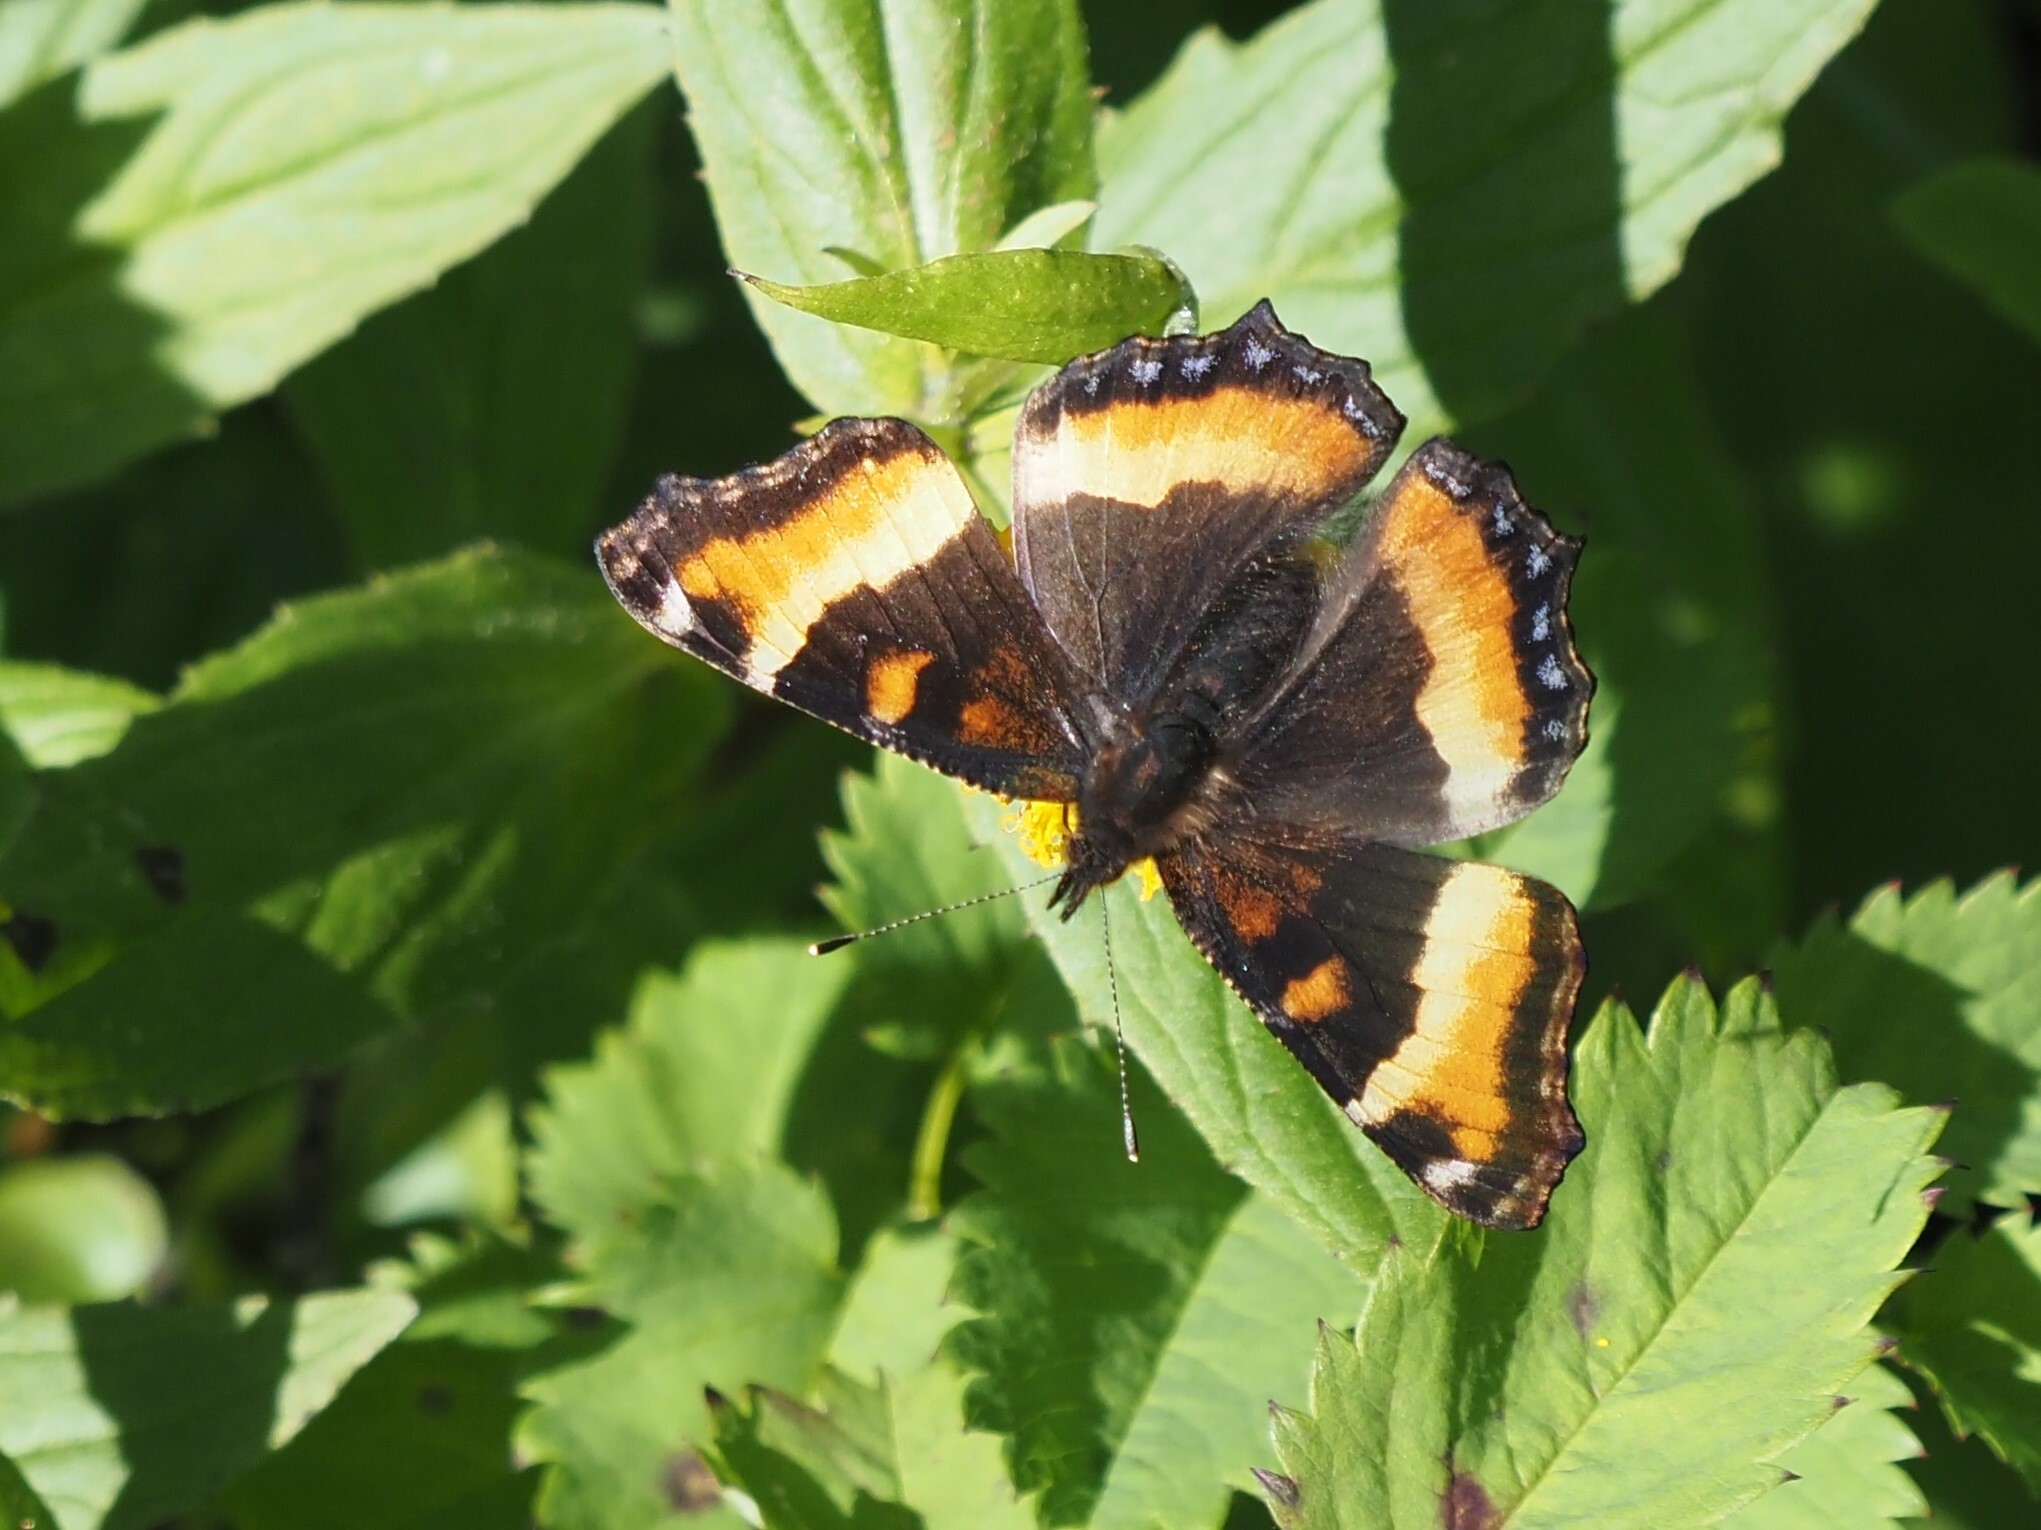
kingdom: Animalia
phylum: Arthropoda
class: Insecta
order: Lepidoptera
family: Nymphalidae
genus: Aglais
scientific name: Aglais milberti
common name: Milbert's tortoiseshell
